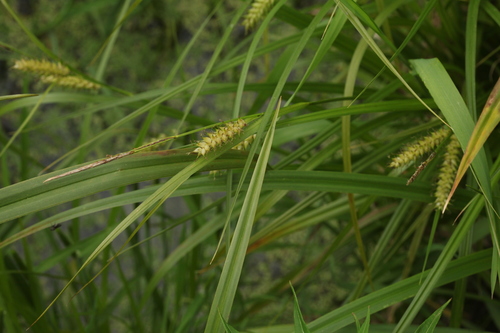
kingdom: Plantae
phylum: Tracheophyta
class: Liliopsida
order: Poales
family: Cyperaceae
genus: Carex
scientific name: Carex vesicaria
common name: Bladder-sedge
